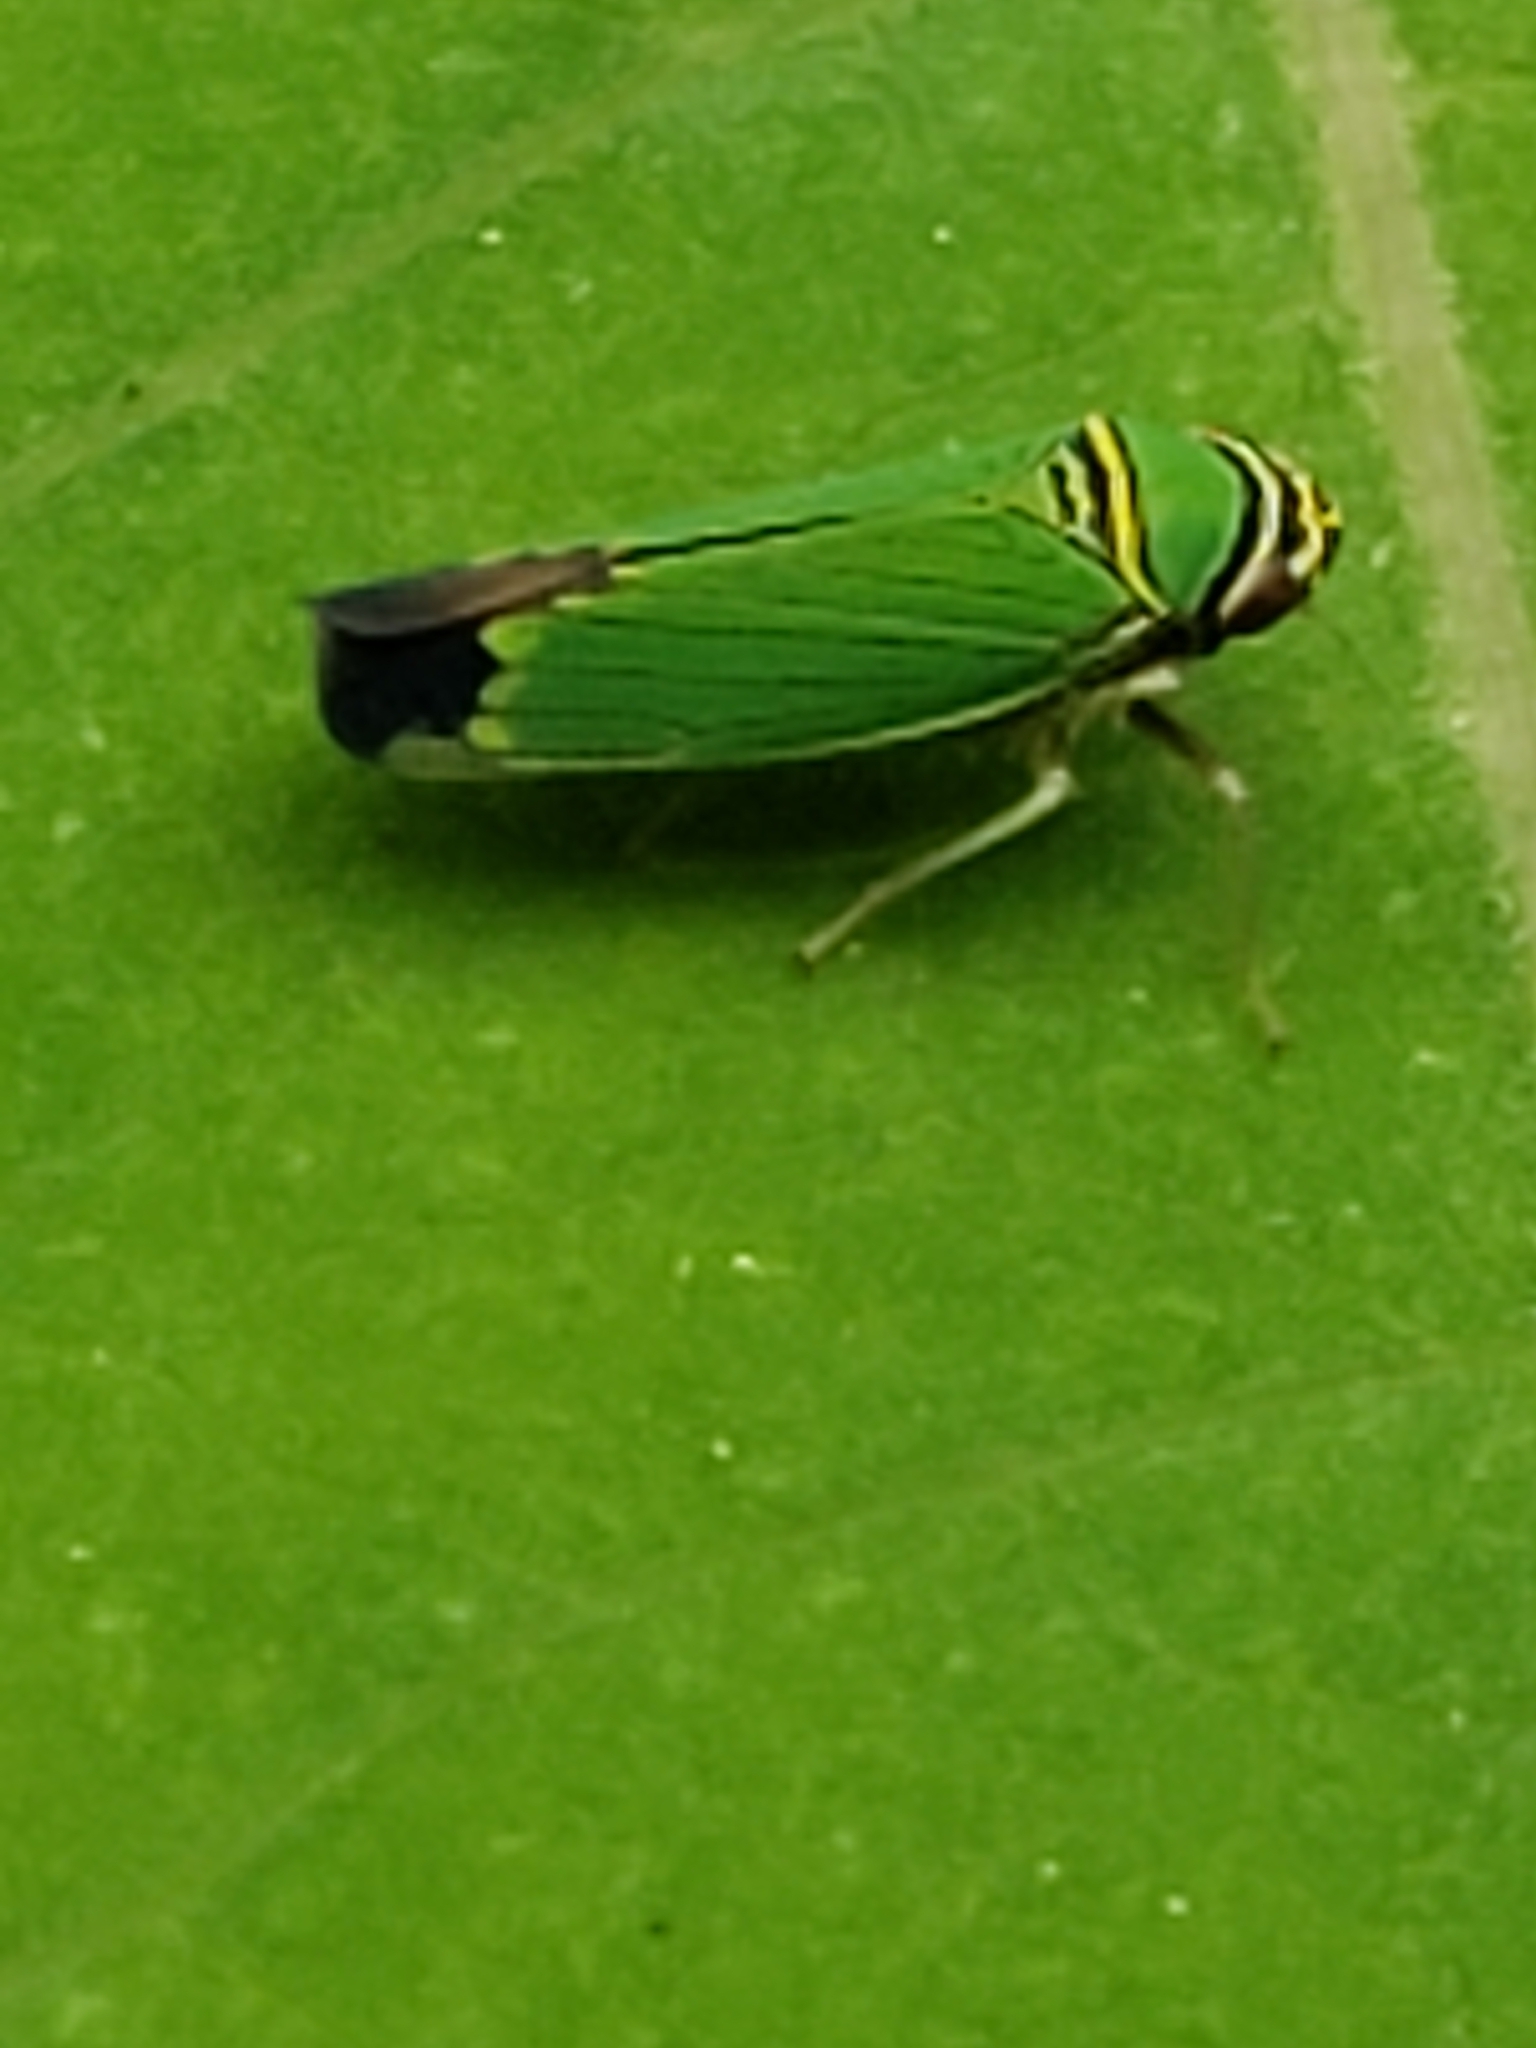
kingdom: Animalia
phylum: Arthropoda
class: Insecta
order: Hemiptera
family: Cicadellidae
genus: Tylozygus
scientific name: Tylozygus geometricus
